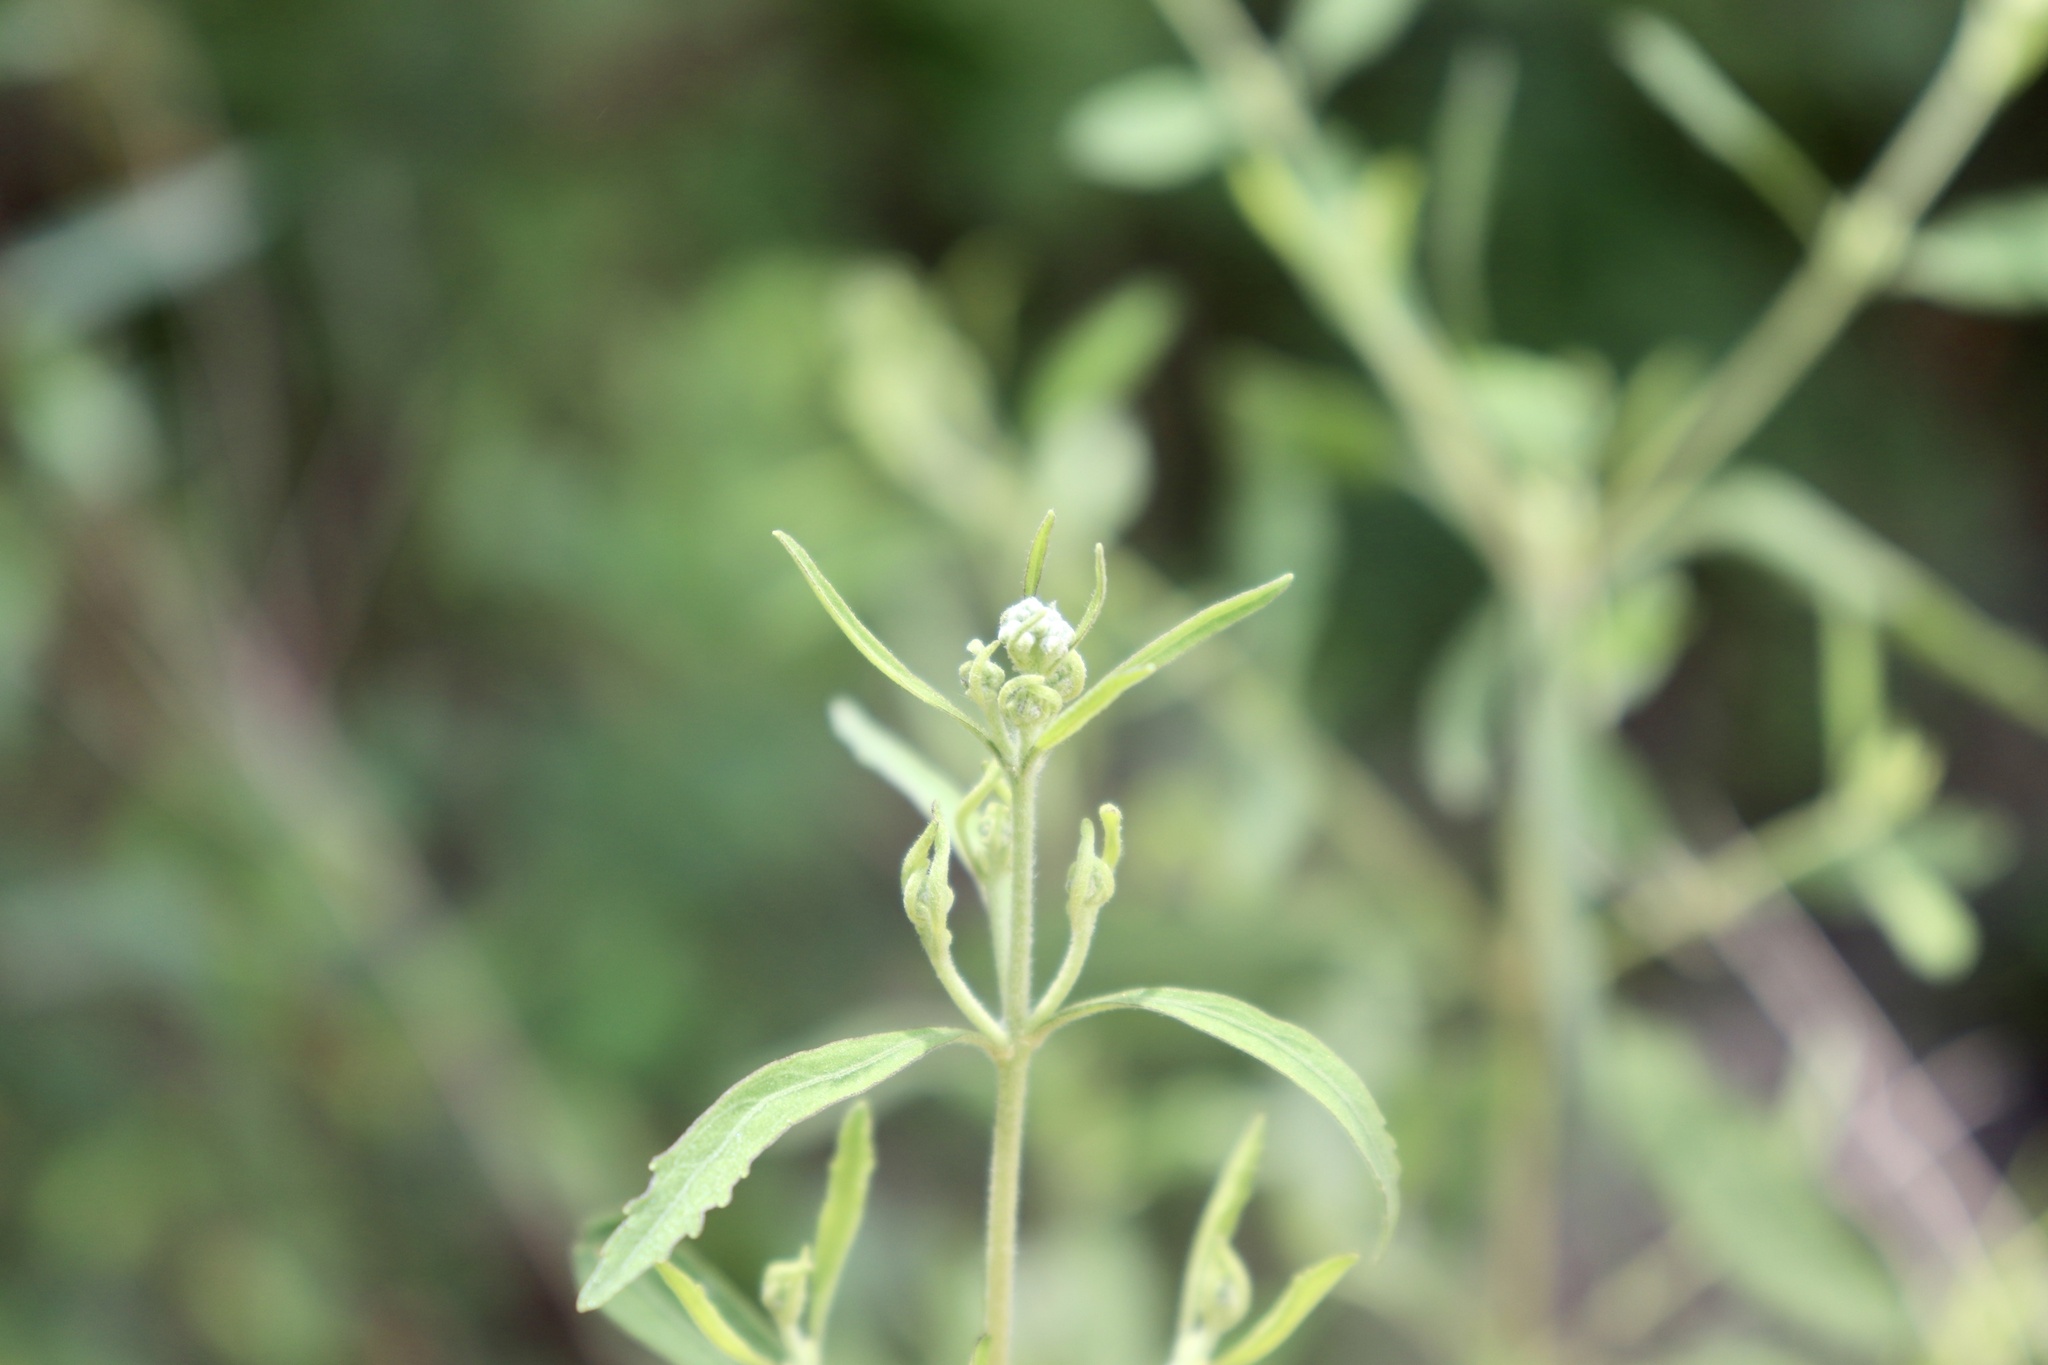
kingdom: Plantae
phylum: Tracheophyta
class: Magnoliopsida
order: Asterales
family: Asteraceae
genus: Eupatorium
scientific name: Eupatorium semiserratum
